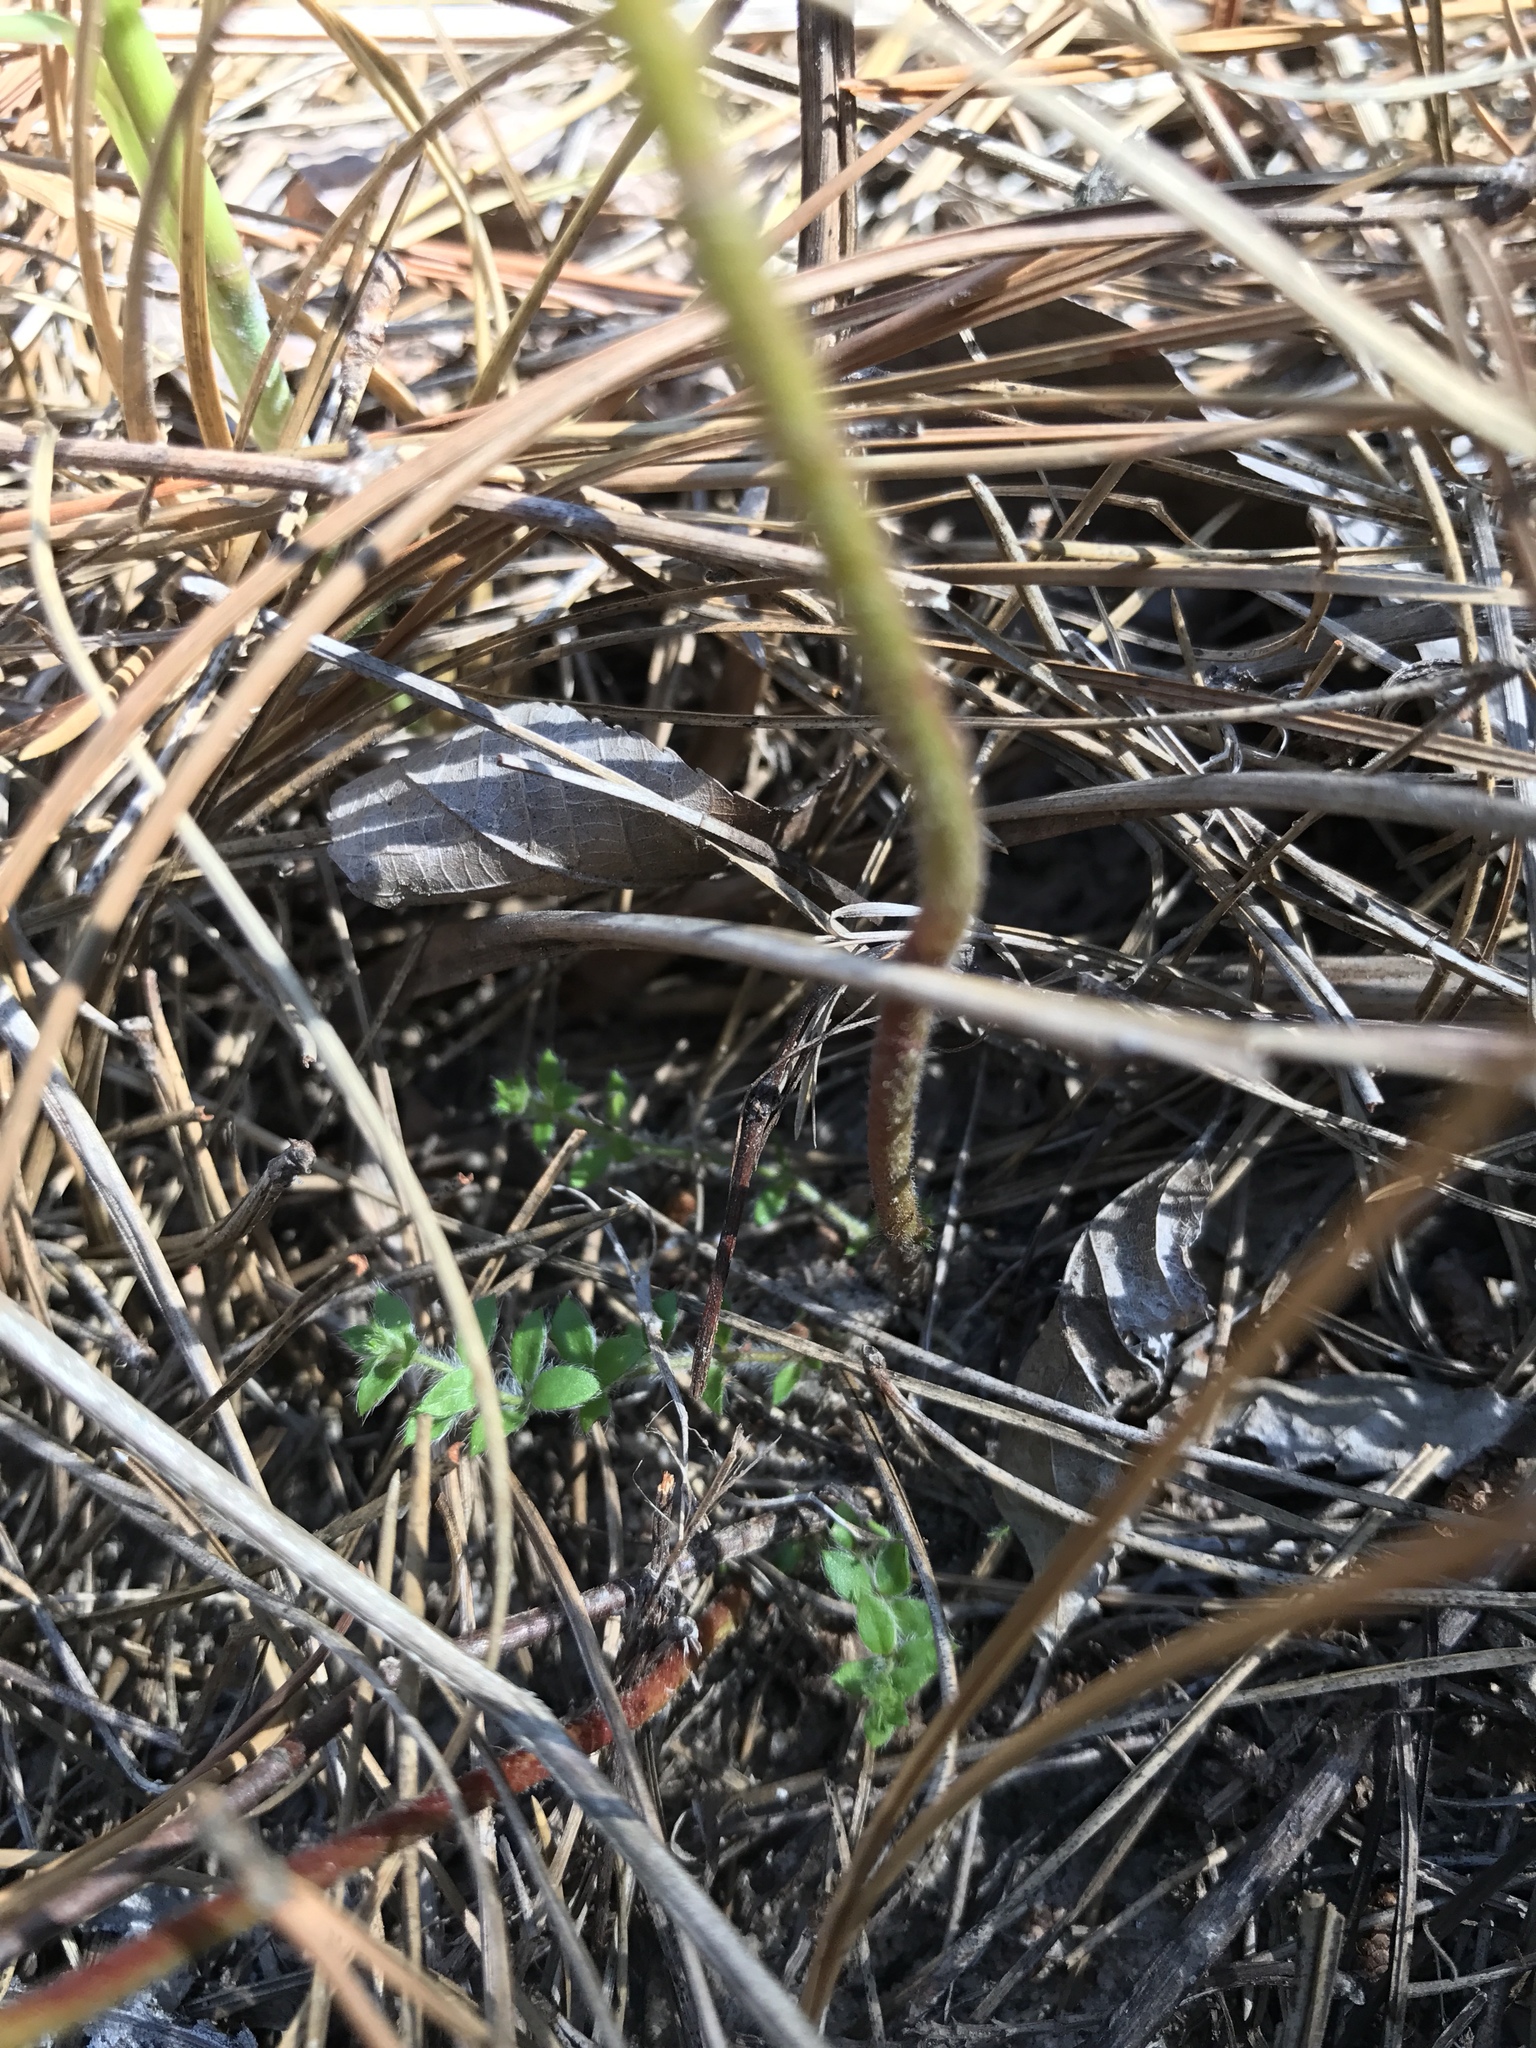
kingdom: Plantae
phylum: Tracheophyta
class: Magnoliopsida
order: Malvales
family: Cistaceae
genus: Lechea
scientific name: Lechea mucronata
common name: Hairy pinweed
